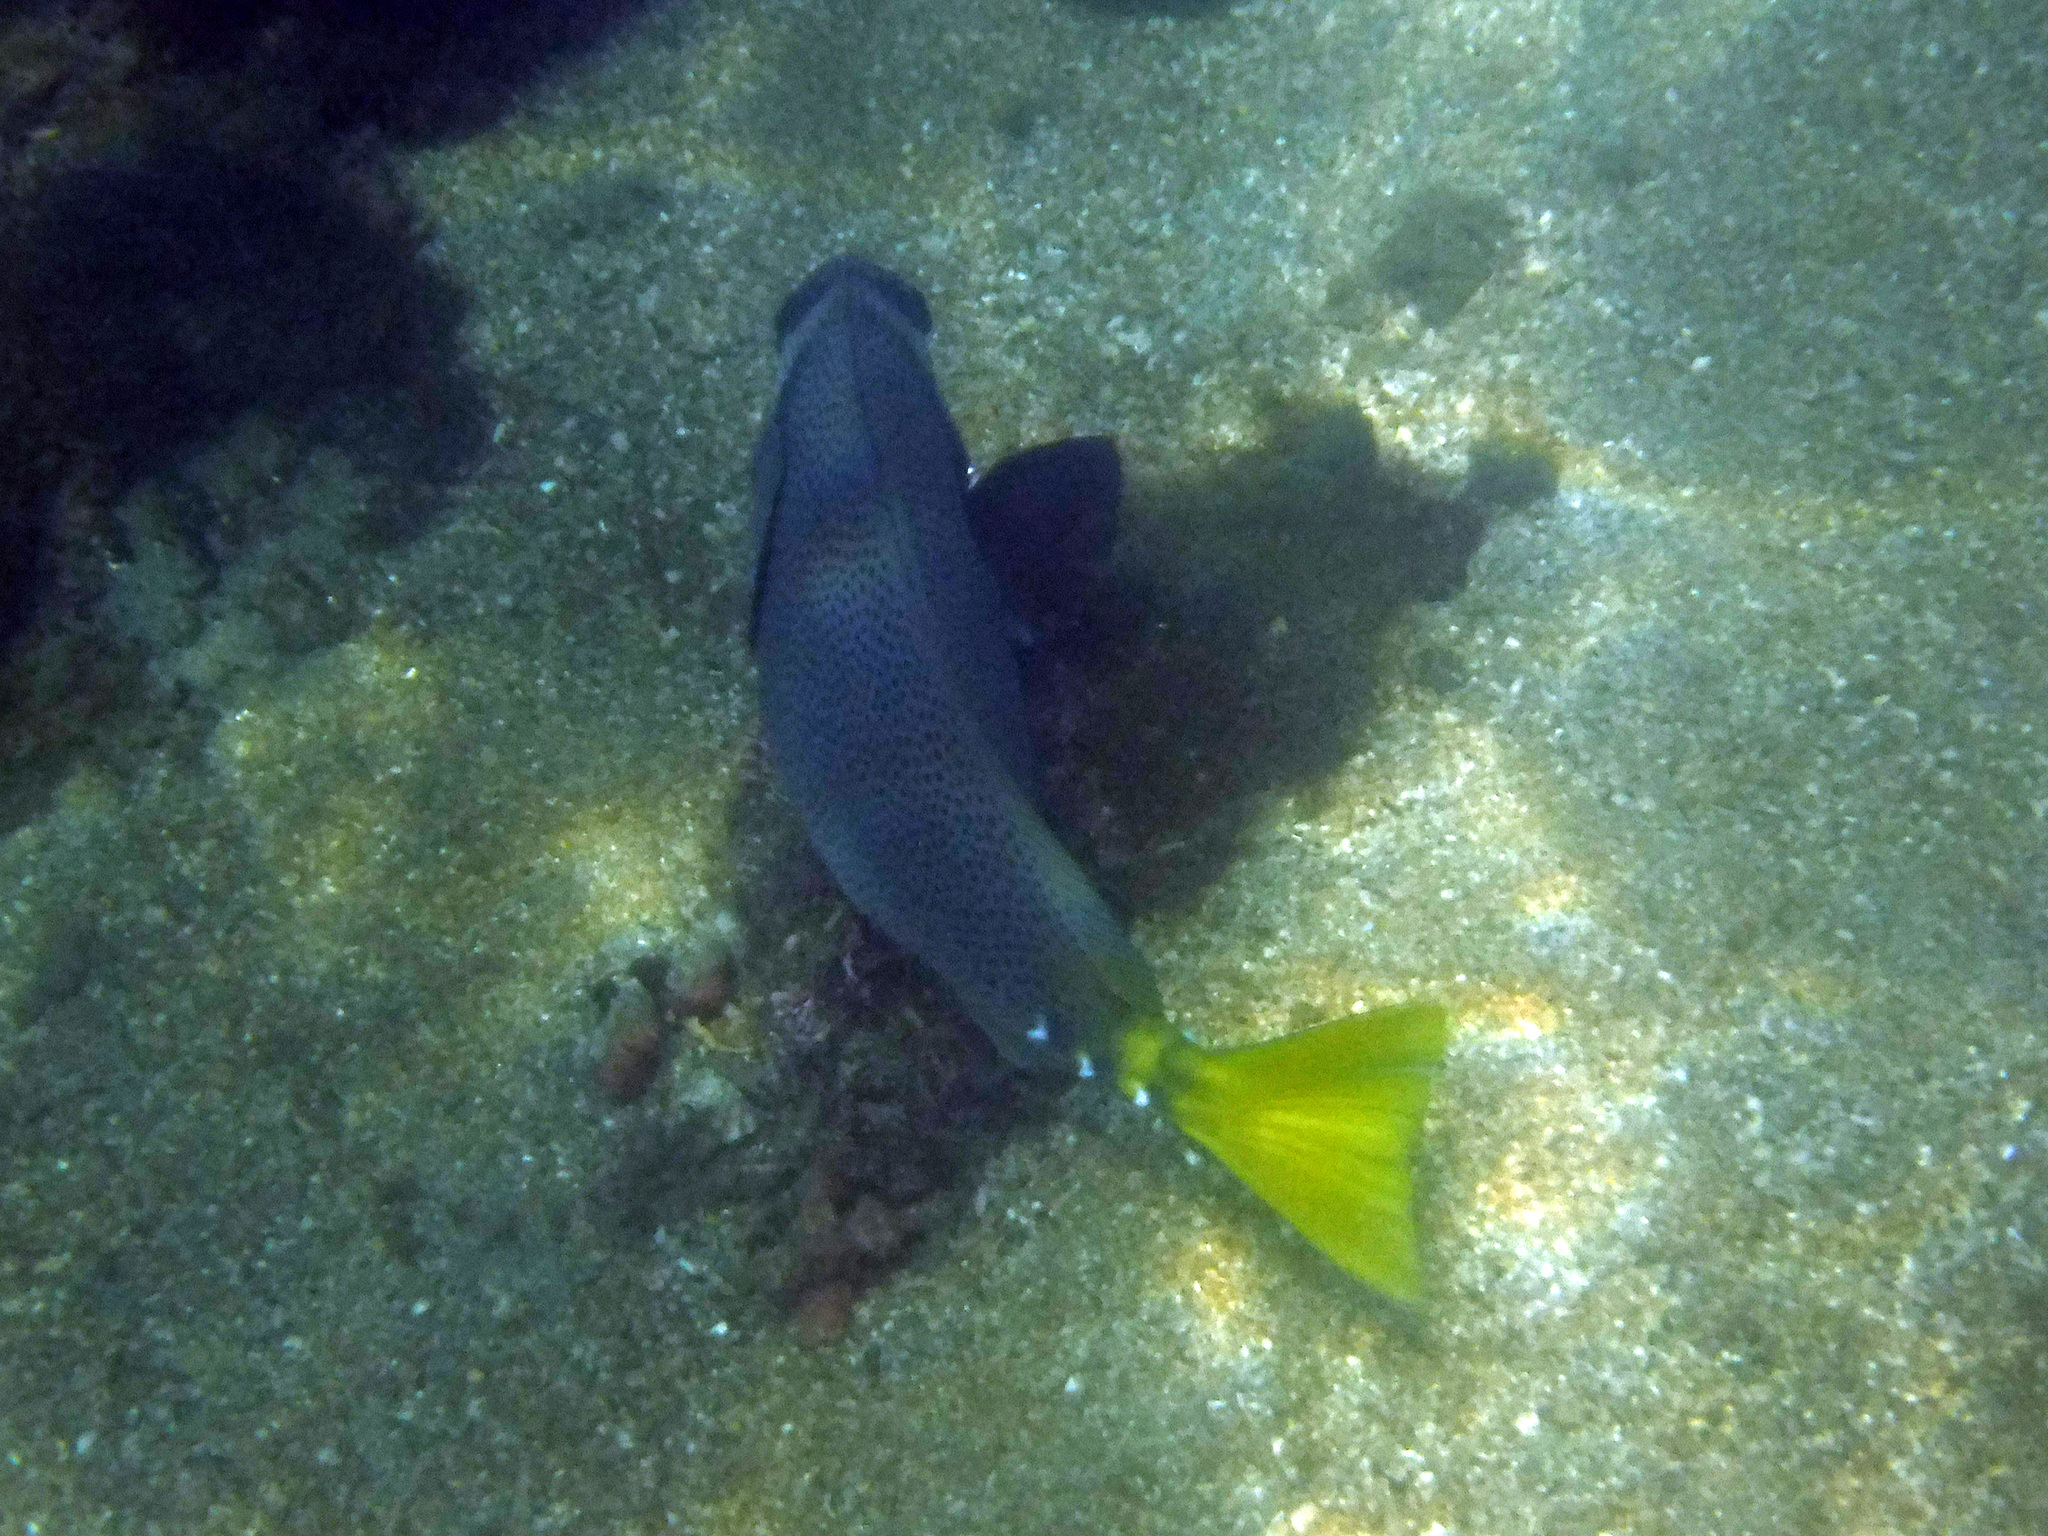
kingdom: Animalia
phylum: Chordata
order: Perciformes
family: Acanthuridae
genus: Prionurus
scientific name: Prionurus laticlavius
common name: Razor surgeonfish
